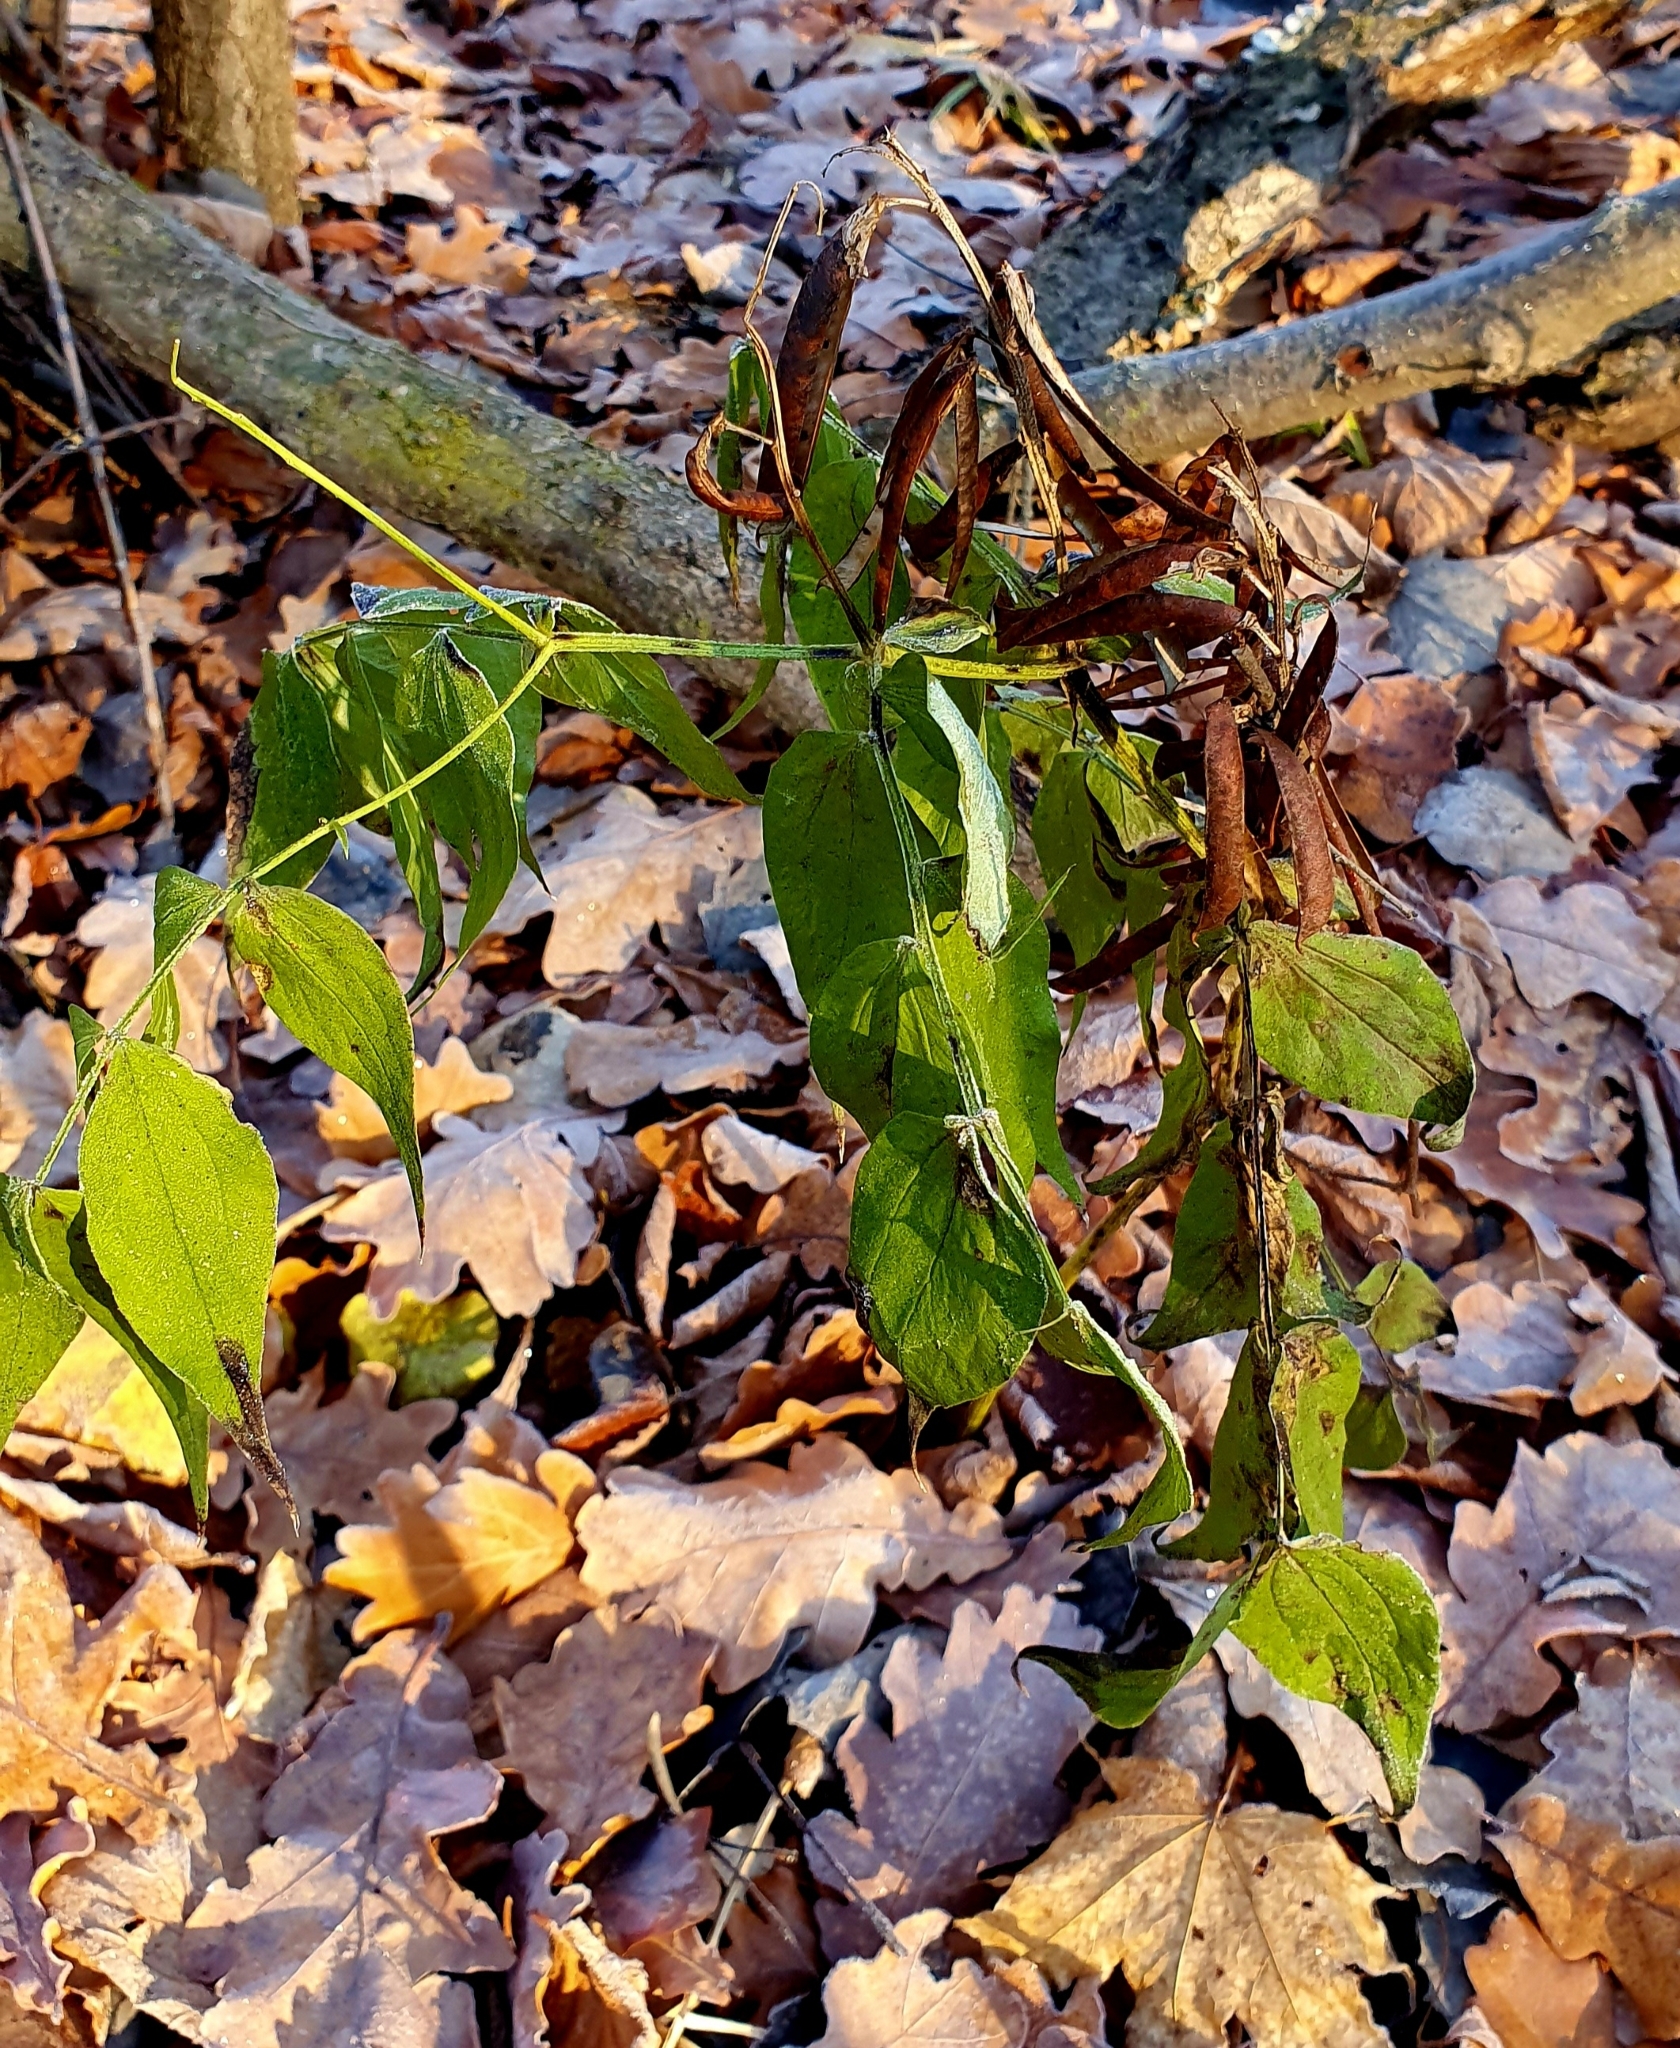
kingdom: Plantae
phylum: Tracheophyta
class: Magnoliopsida
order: Fabales
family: Fabaceae
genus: Lathyrus
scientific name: Lathyrus vernus
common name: Spring pea
